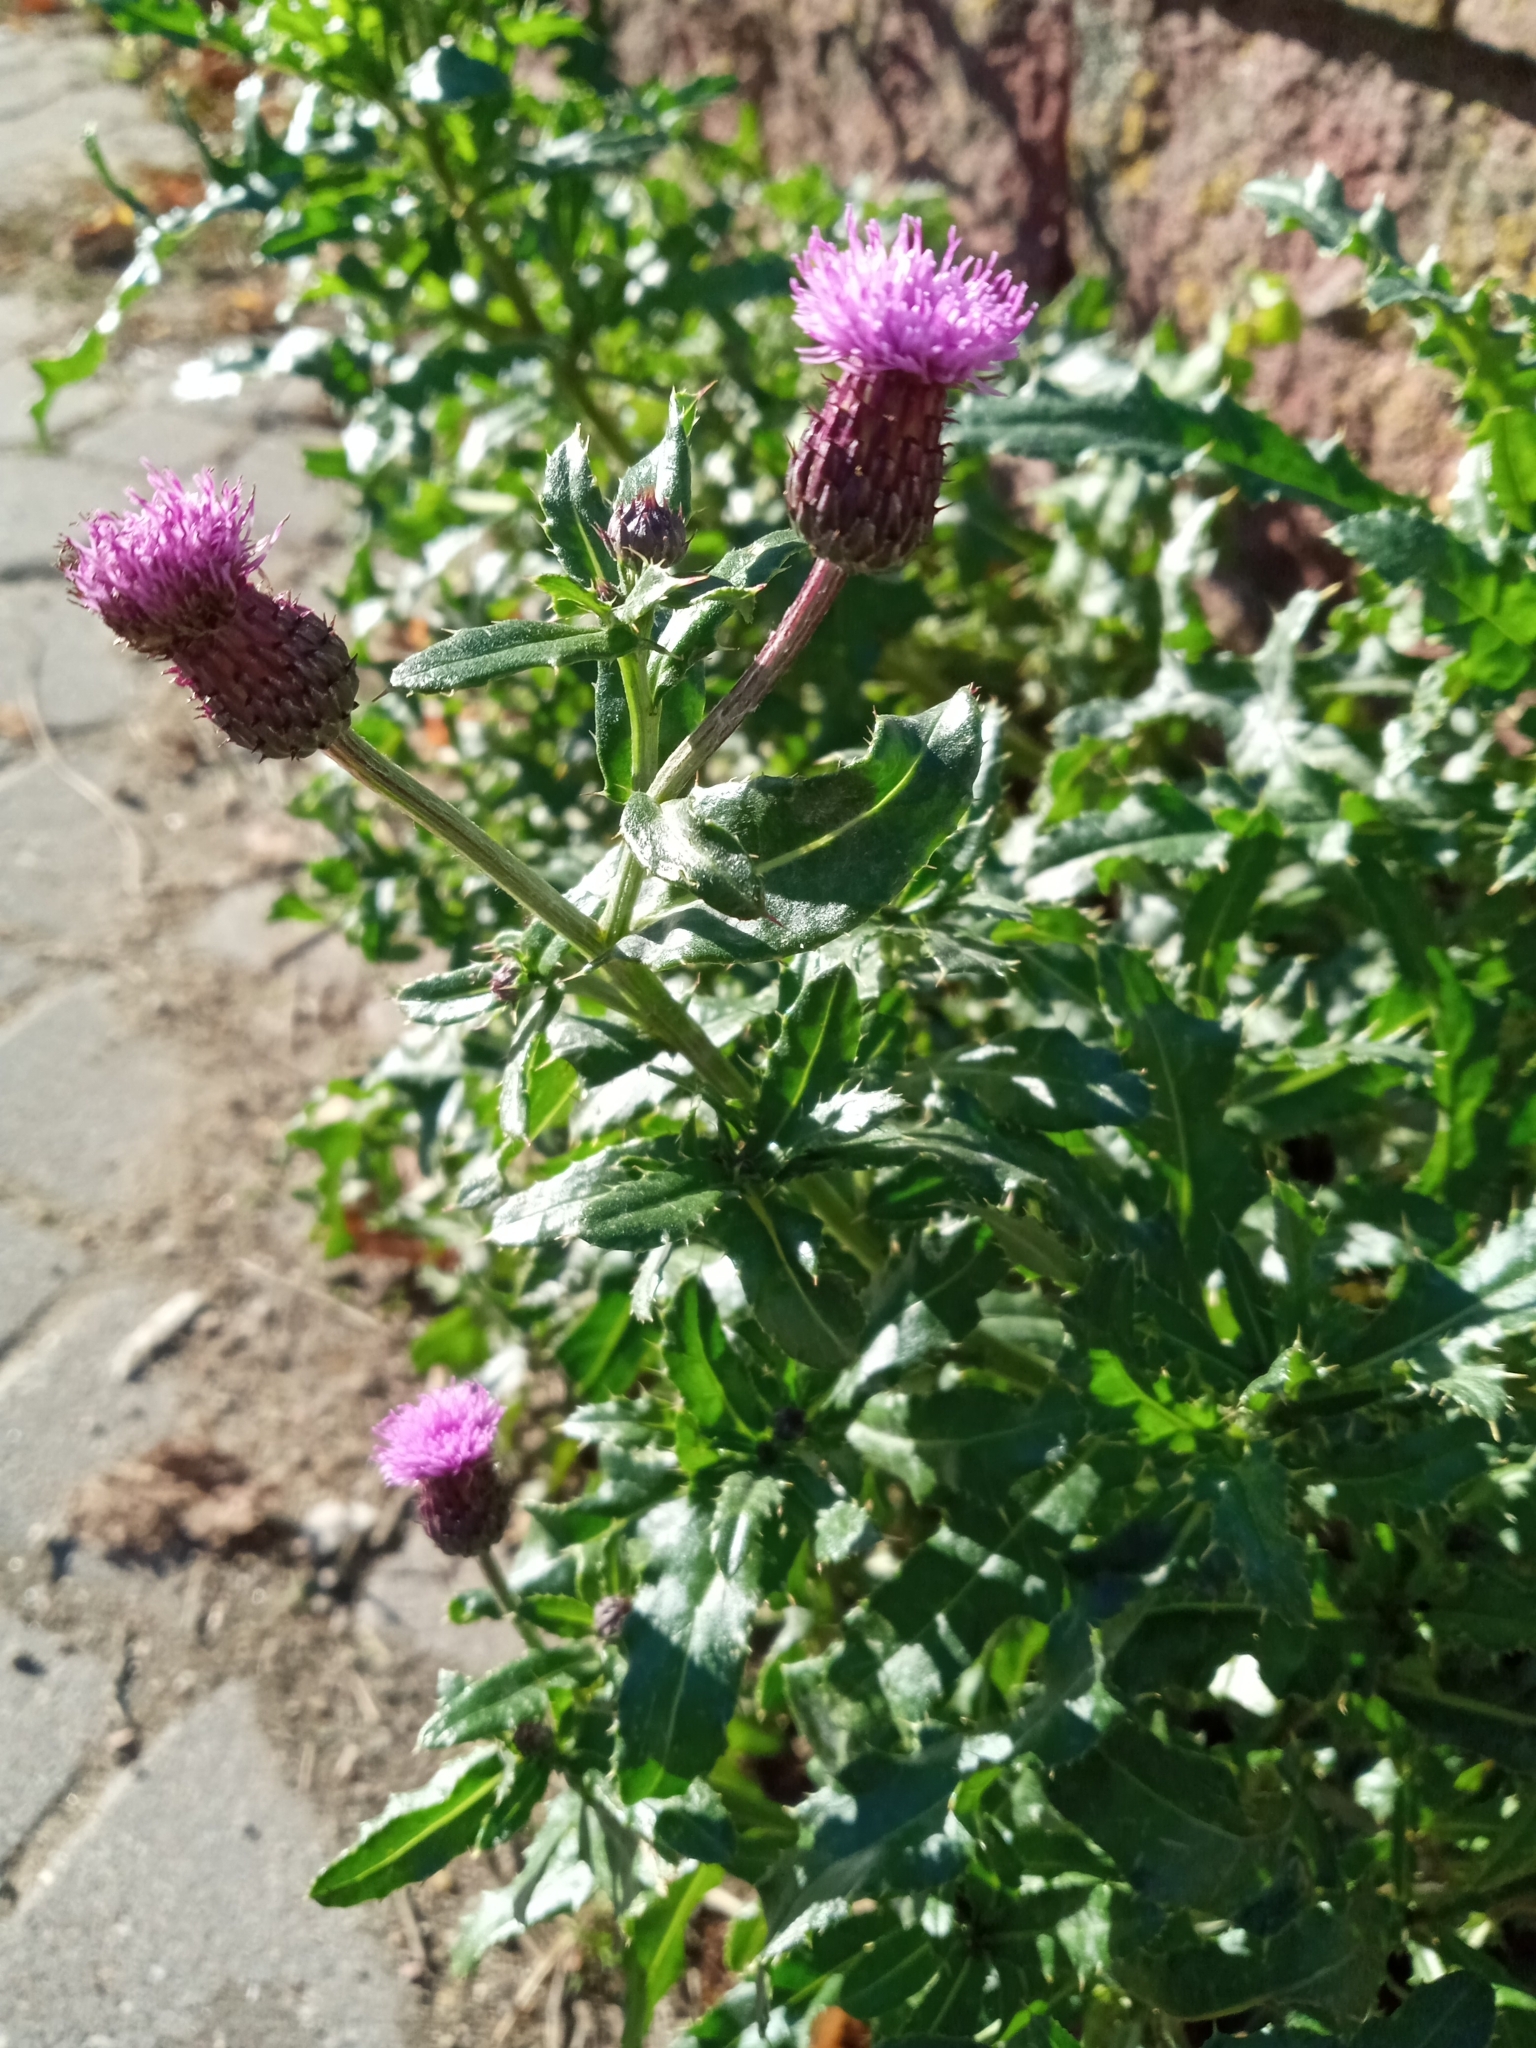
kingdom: Plantae
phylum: Tracheophyta
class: Magnoliopsida
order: Asterales
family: Asteraceae
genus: Cirsium
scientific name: Cirsium arvense
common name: Creeping thistle
